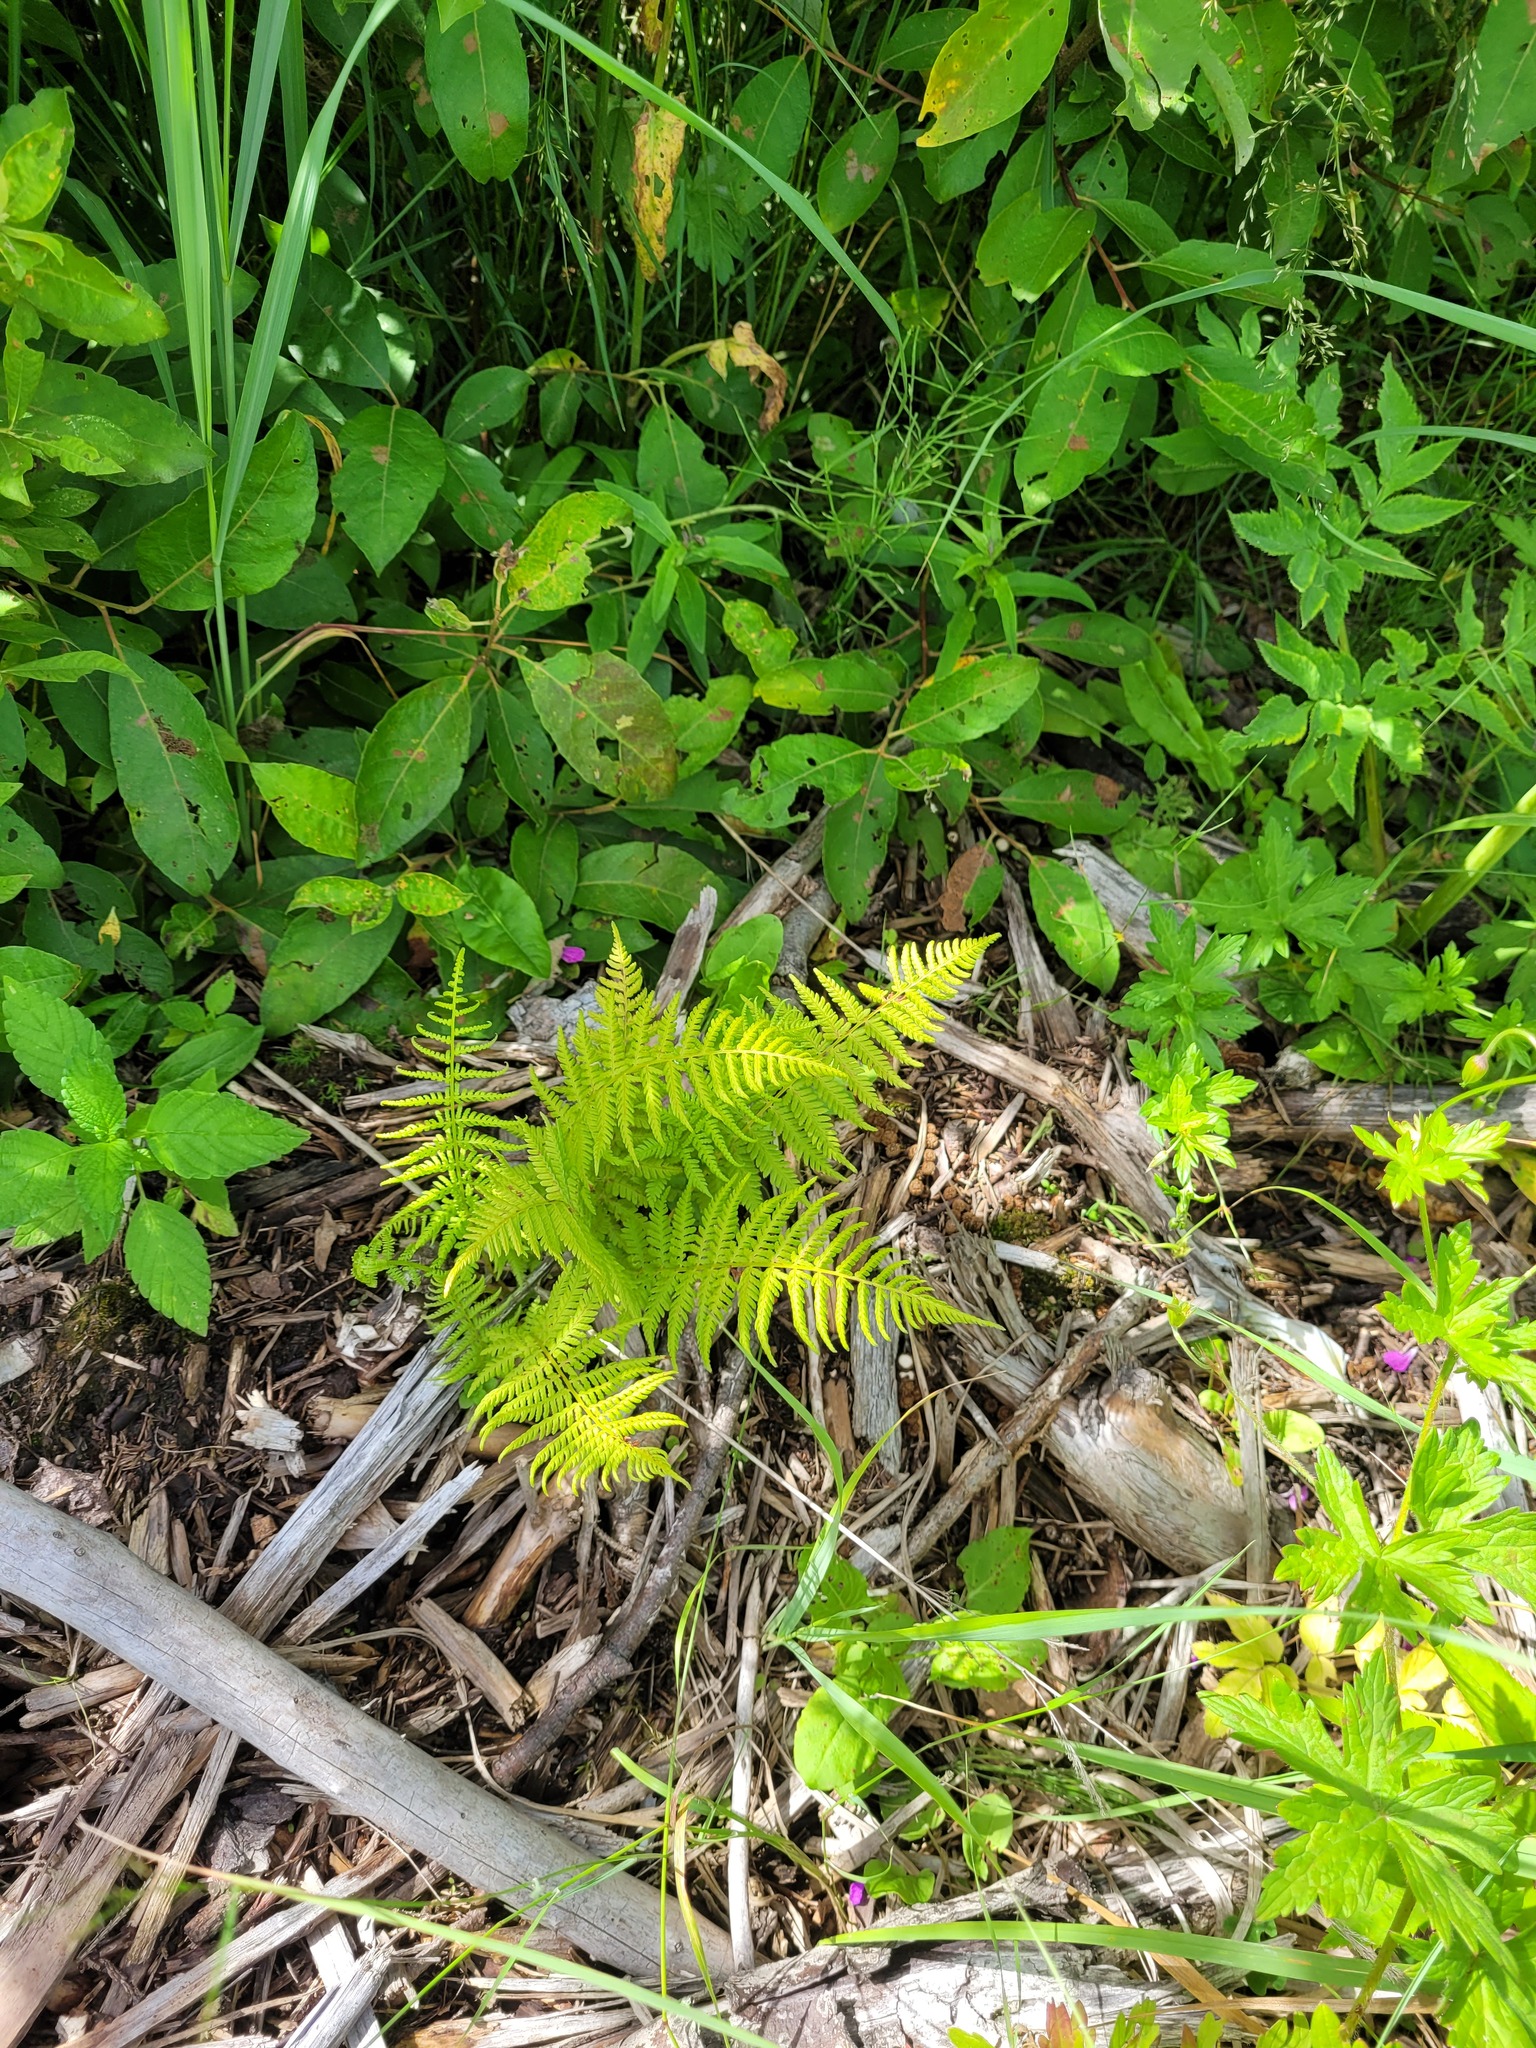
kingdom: Plantae
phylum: Tracheophyta
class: Polypodiopsida
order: Polypodiales
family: Athyriaceae
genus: Athyrium
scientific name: Athyrium filix-femina
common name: Lady fern
